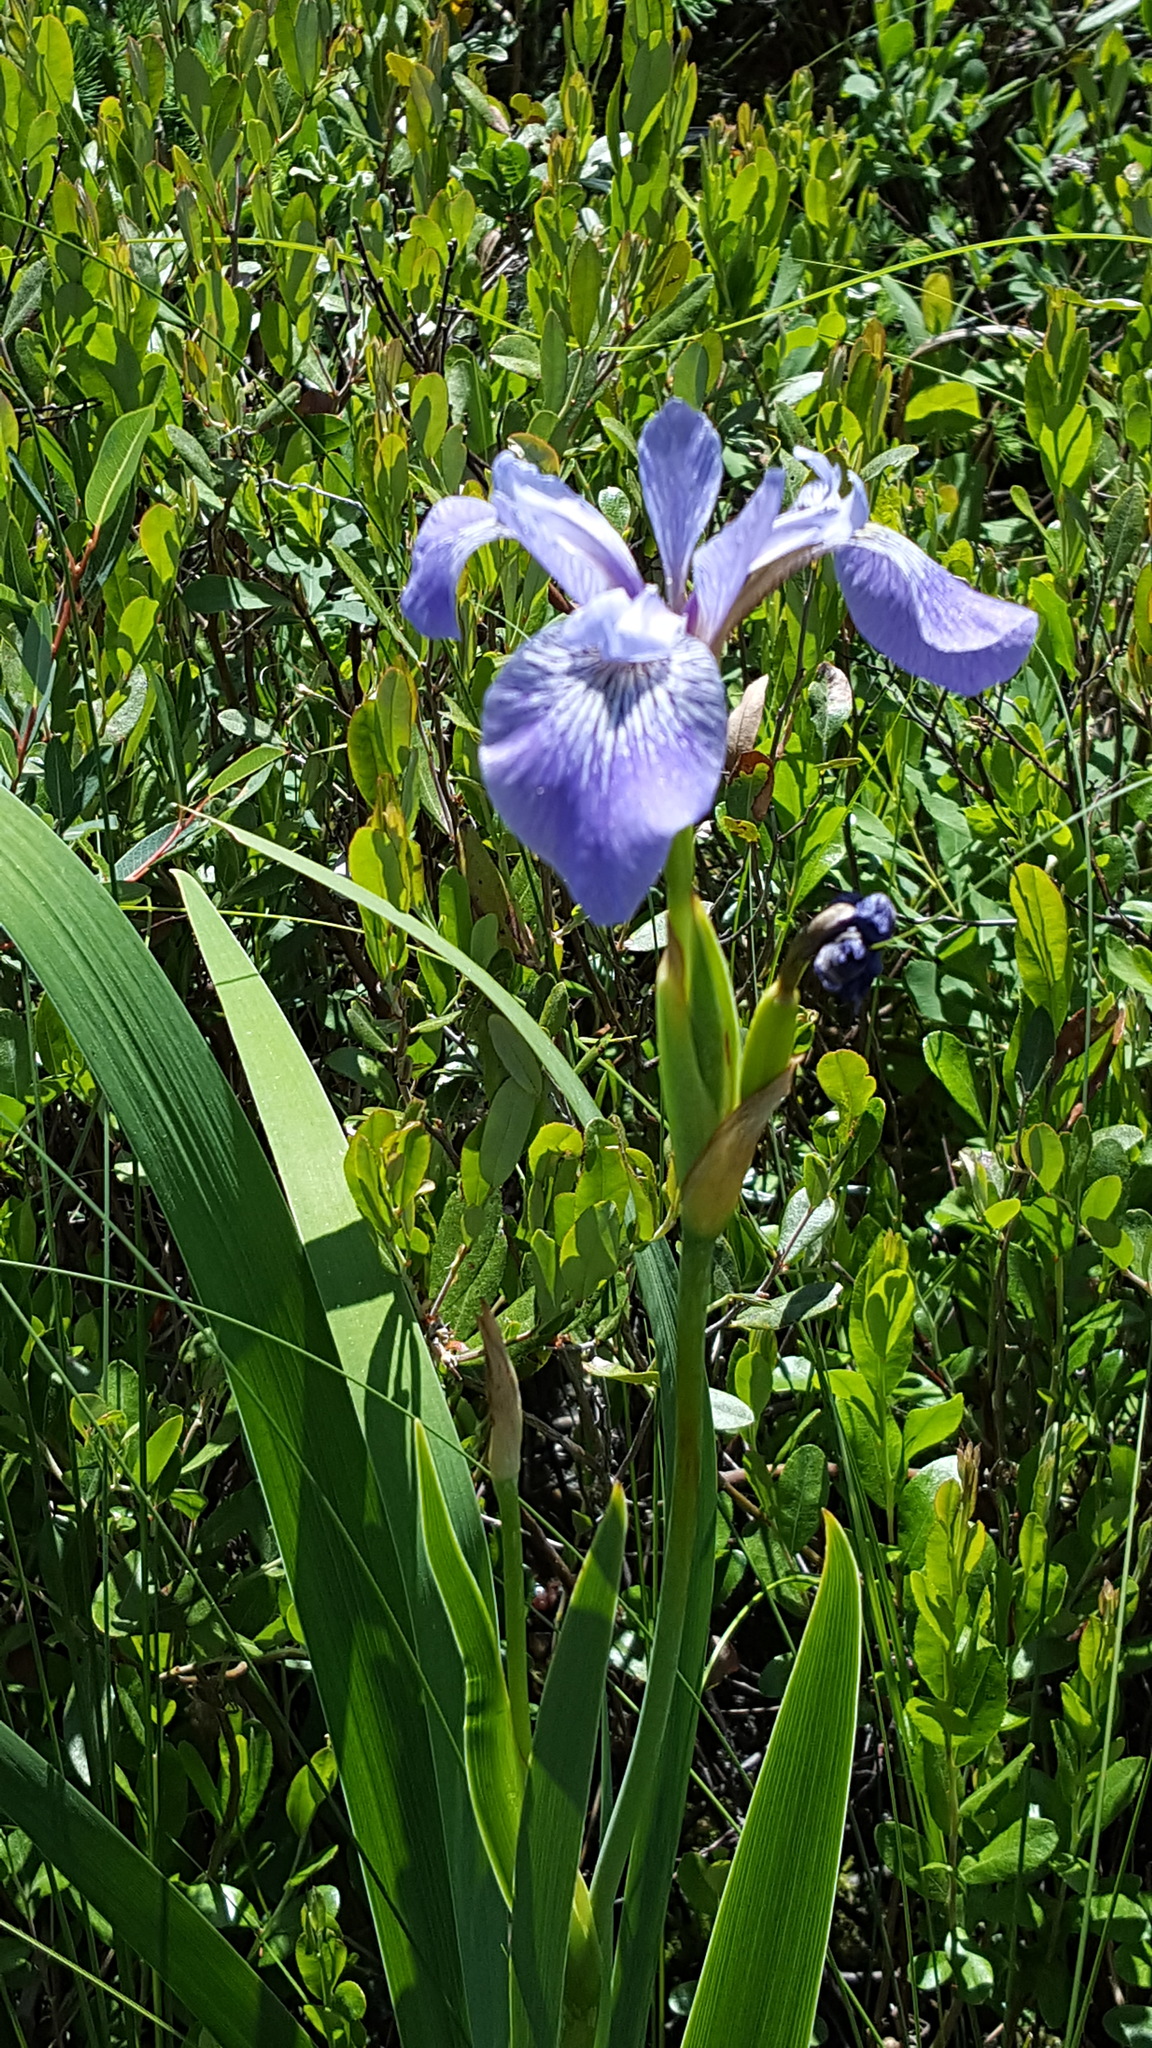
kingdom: Plantae
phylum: Tracheophyta
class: Liliopsida
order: Asparagales
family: Iridaceae
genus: Iris
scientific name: Iris versicolor
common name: Purple iris
